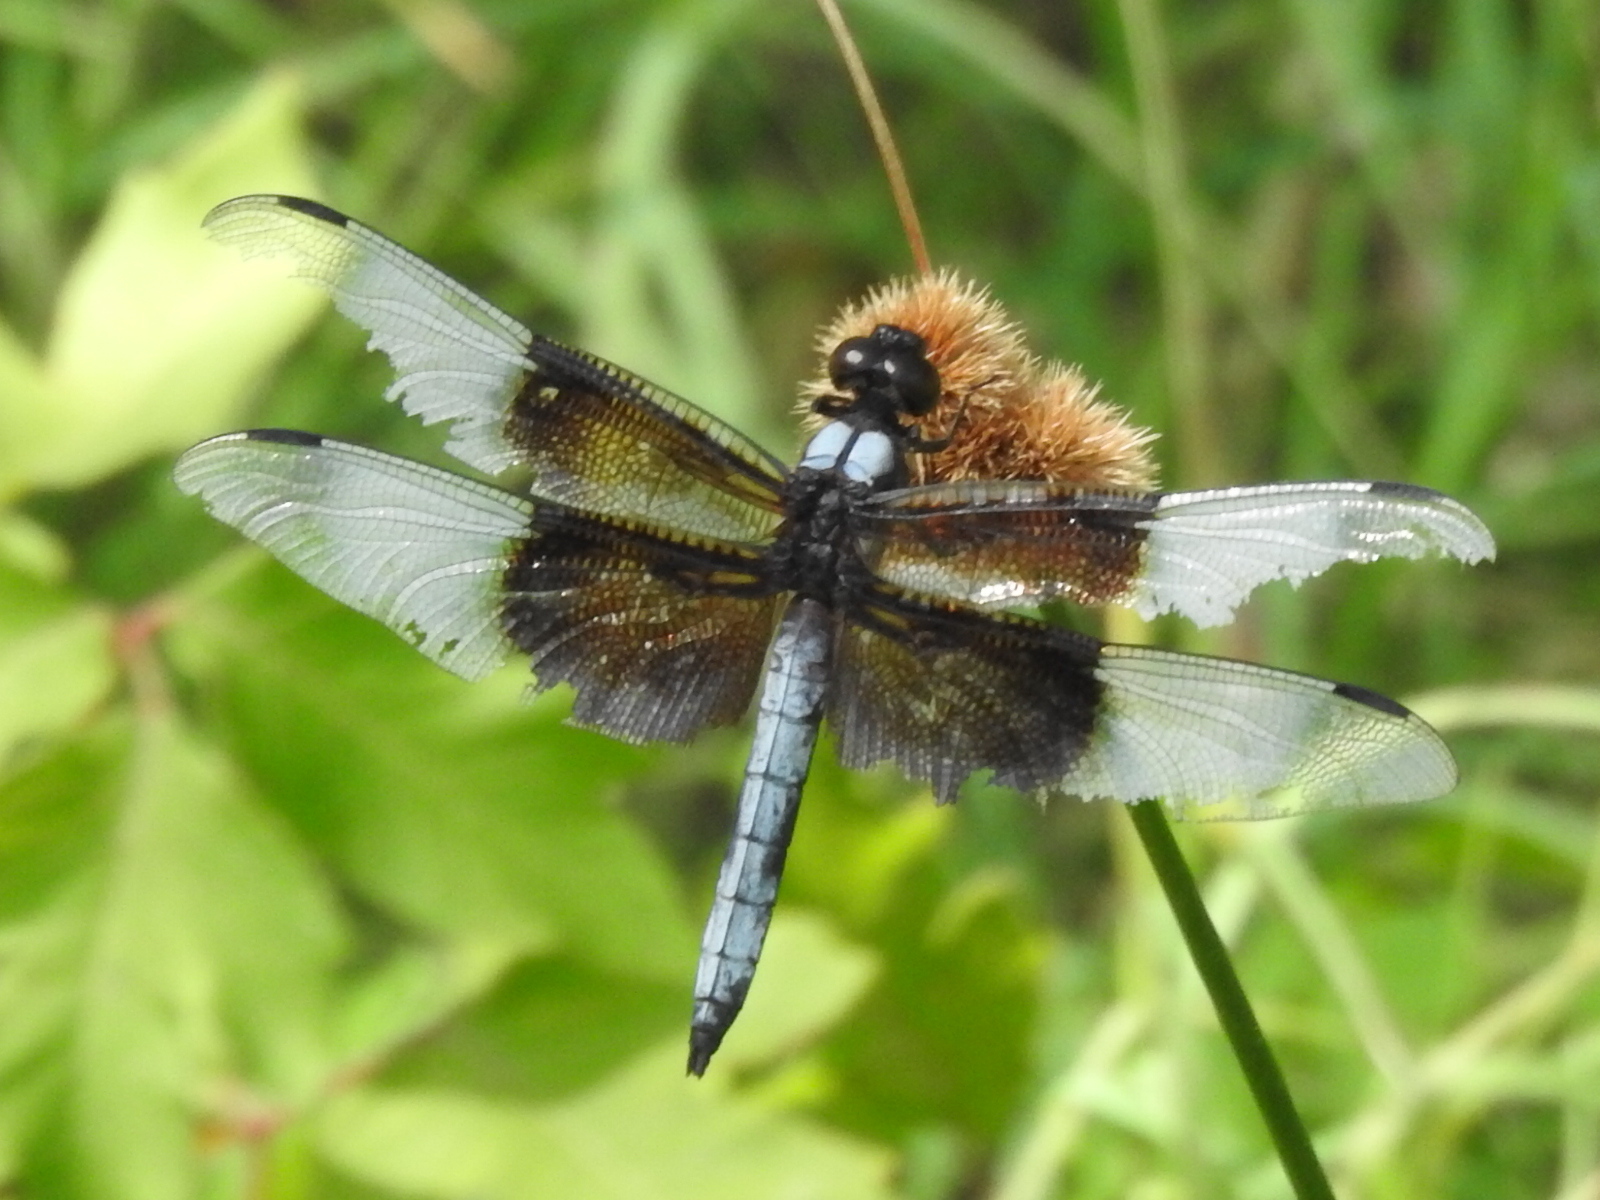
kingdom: Animalia
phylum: Arthropoda
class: Insecta
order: Odonata
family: Libellulidae
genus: Libellula
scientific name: Libellula luctuosa
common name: Widow skimmer
